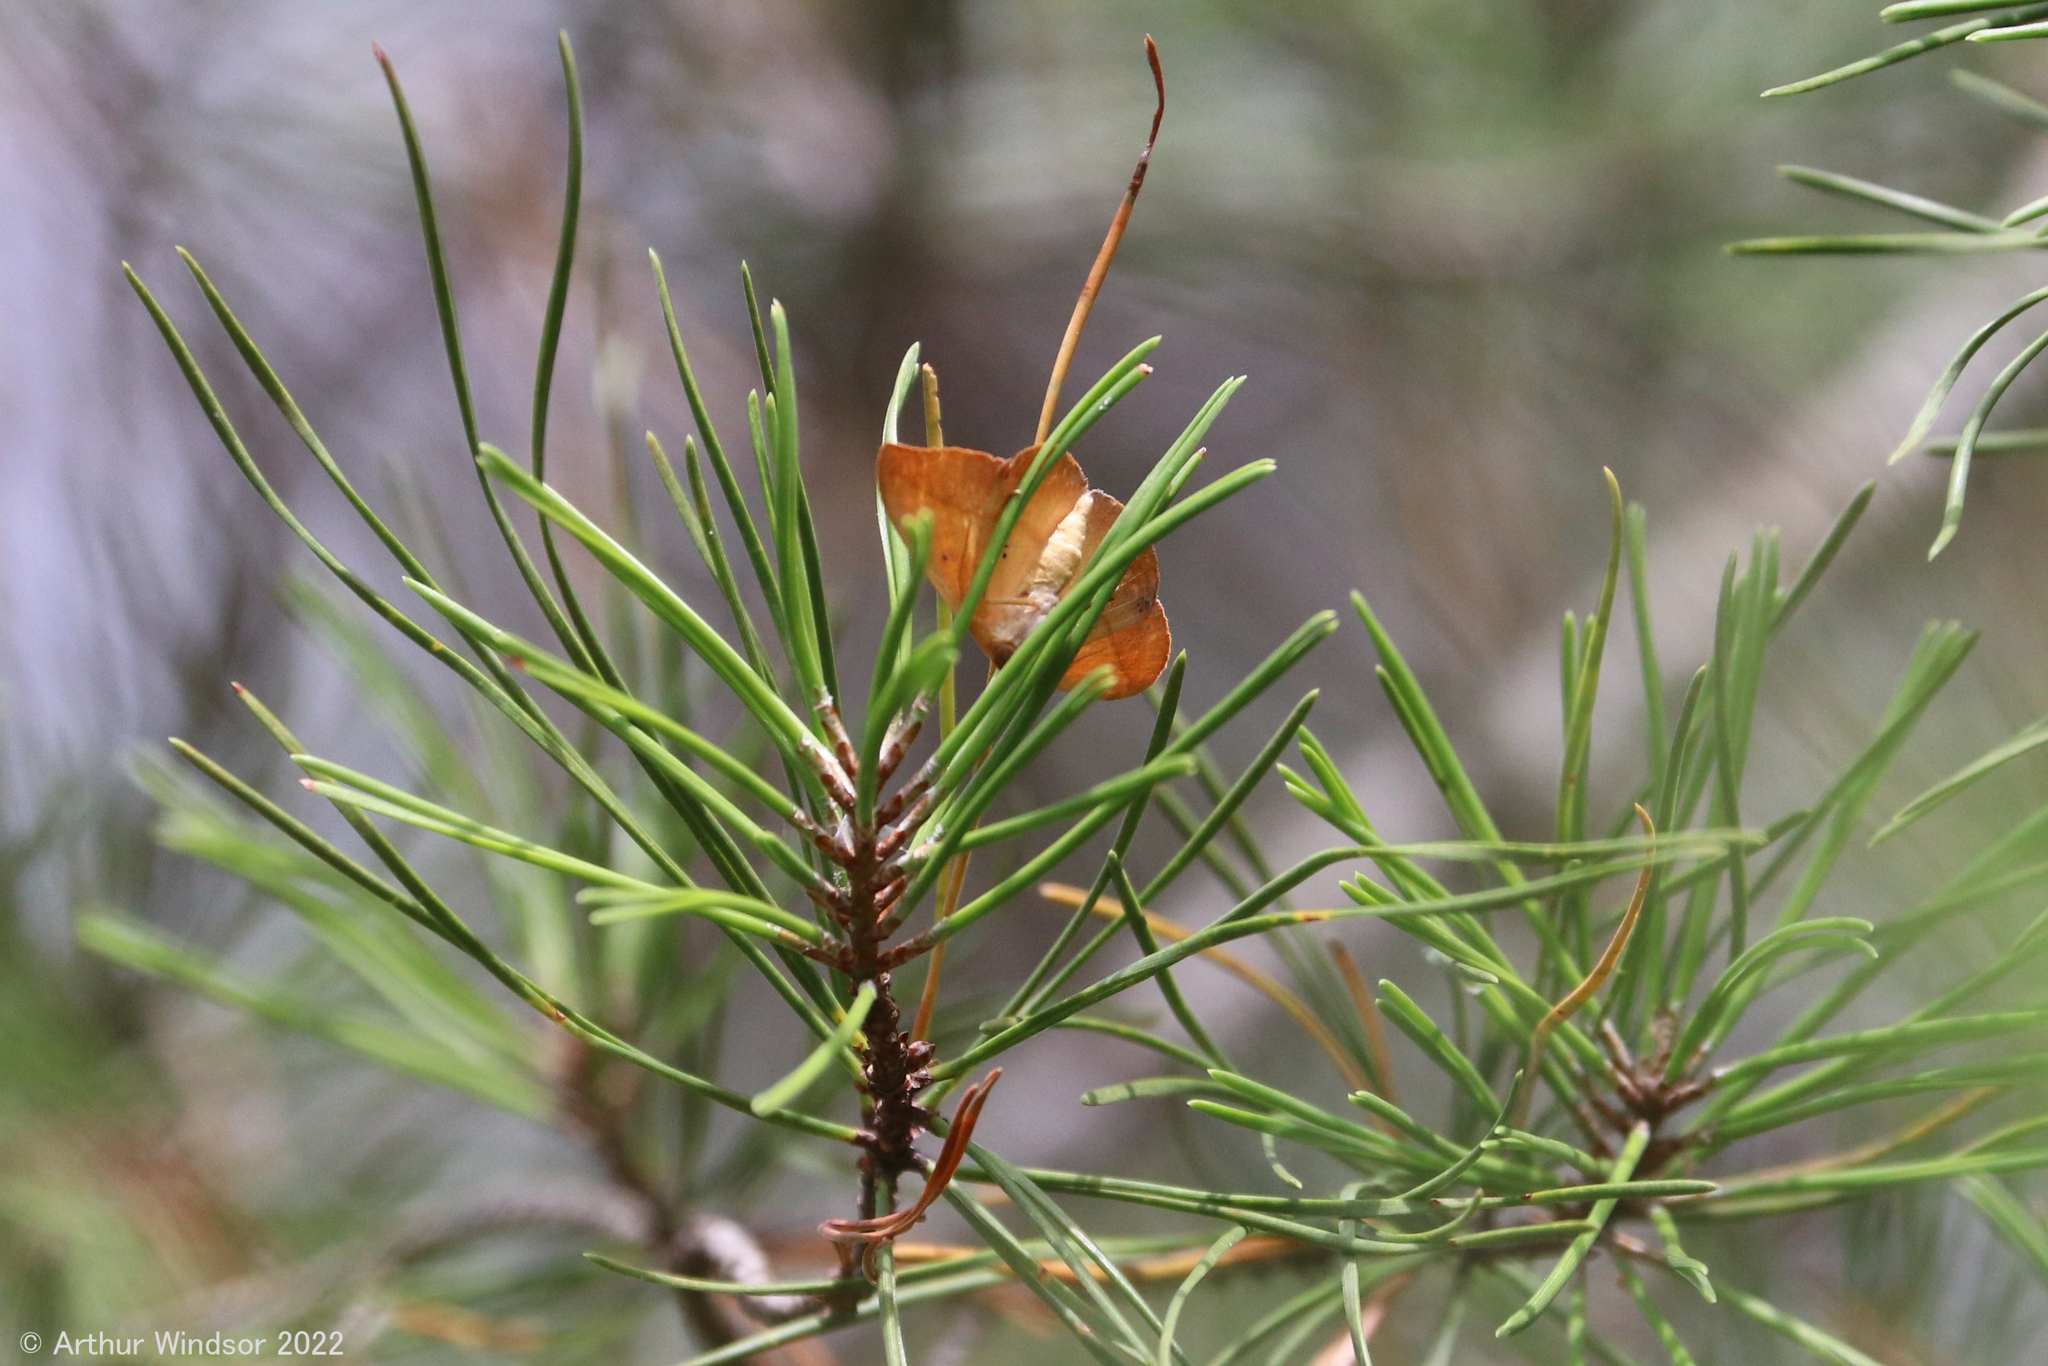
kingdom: Animalia
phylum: Arthropoda
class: Insecta
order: Lepidoptera
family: Geometridae
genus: Patalene
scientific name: Patalene olyzonaria
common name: Juniper geometer moth
